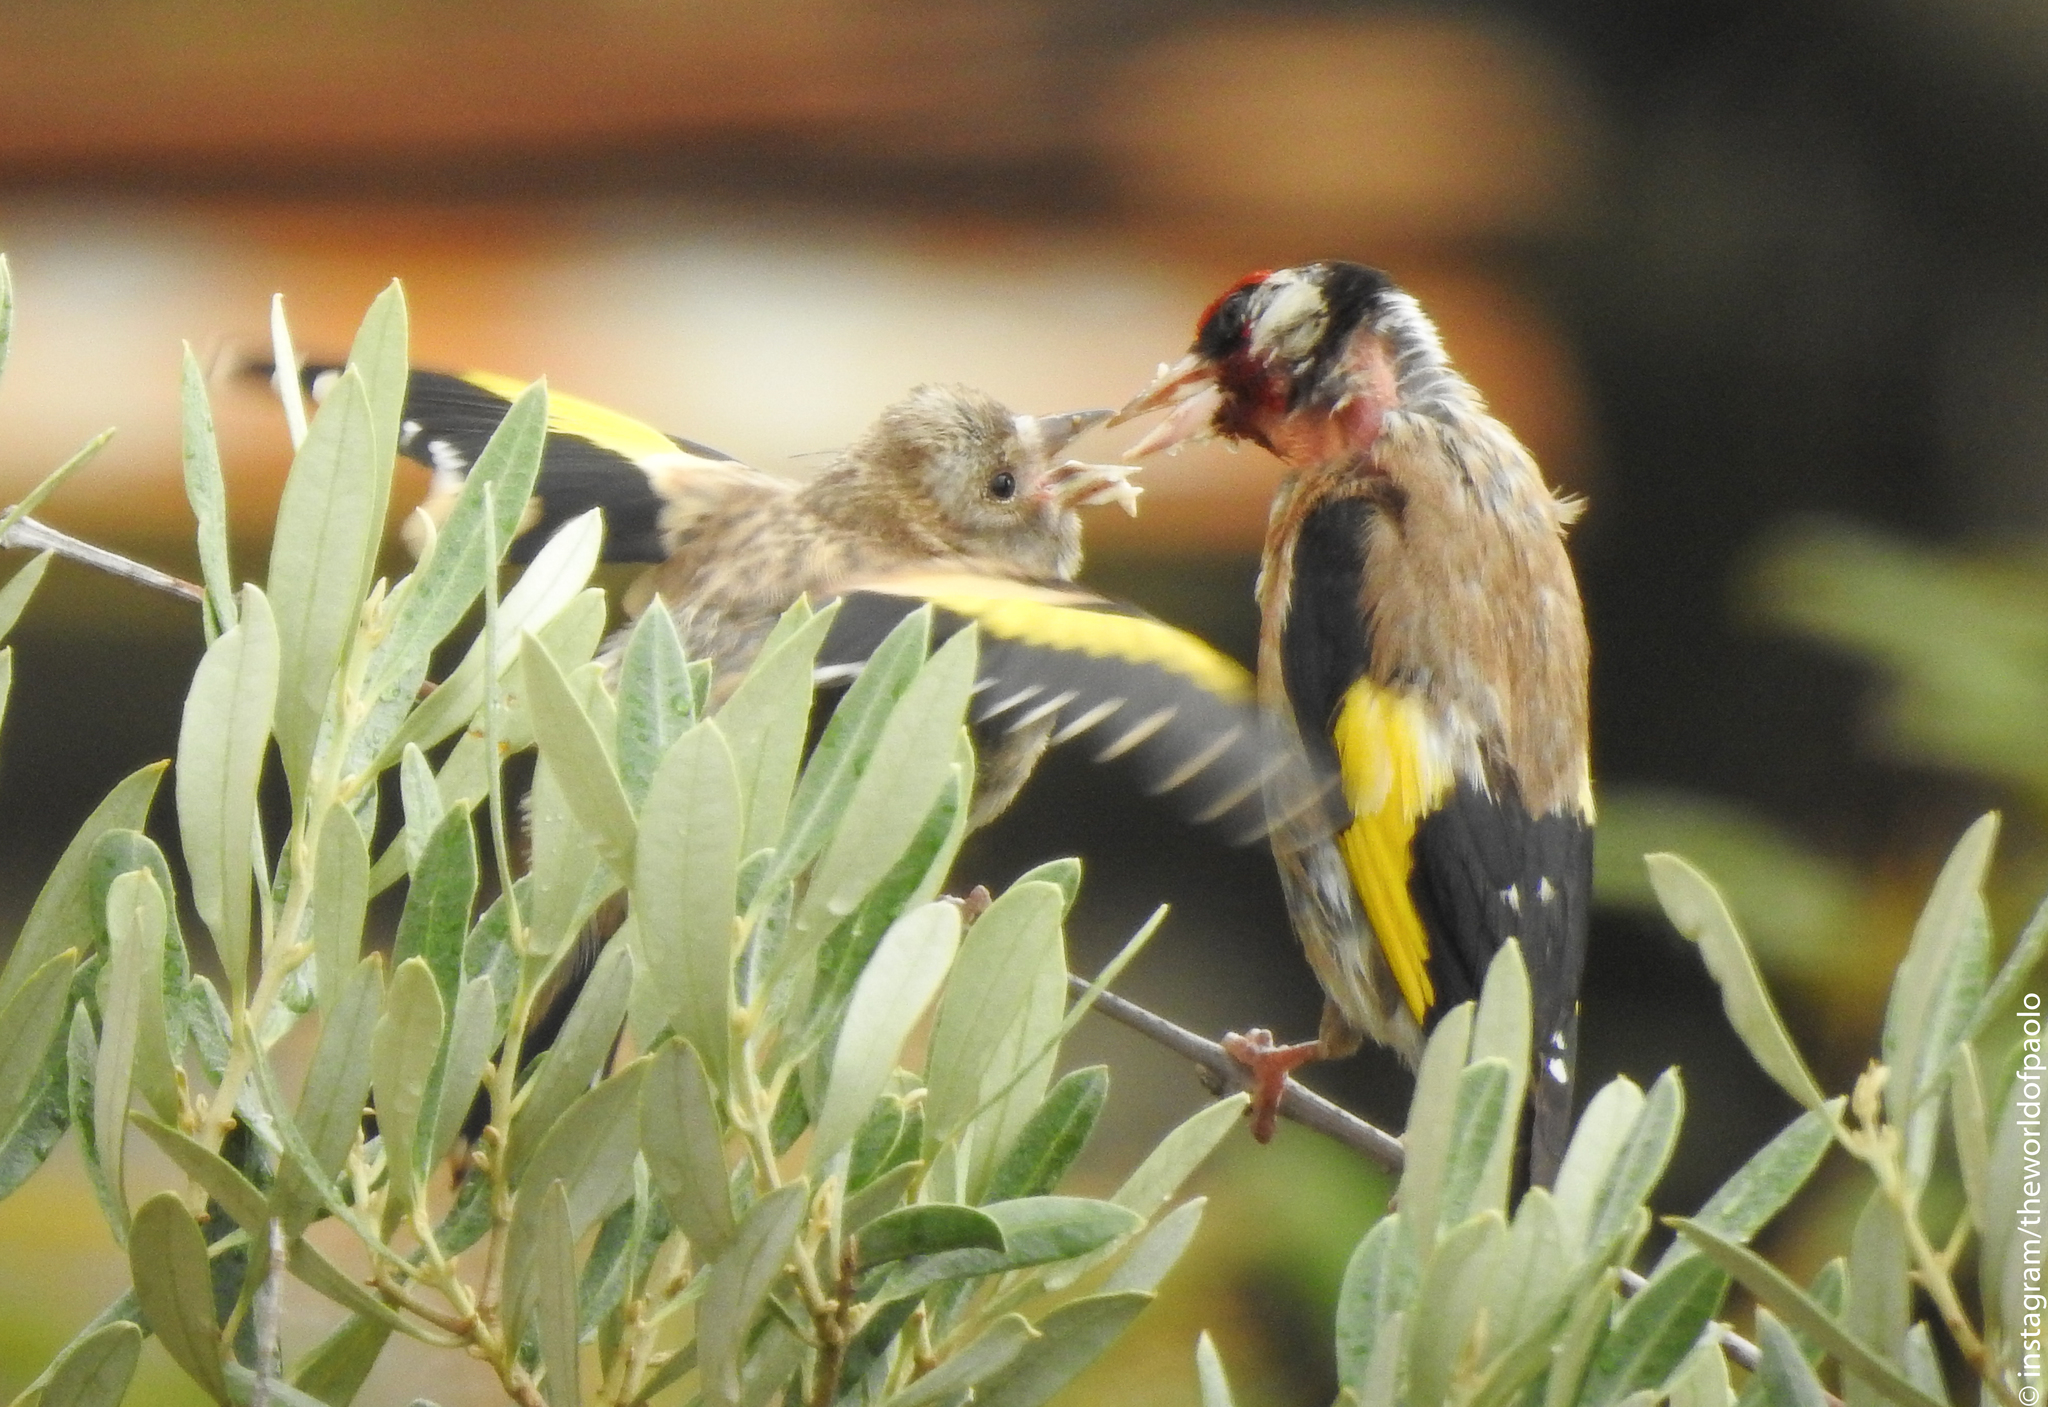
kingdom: Animalia
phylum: Chordata
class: Aves
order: Passeriformes
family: Fringillidae
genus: Carduelis
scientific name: Carduelis carduelis
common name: European goldfinch
